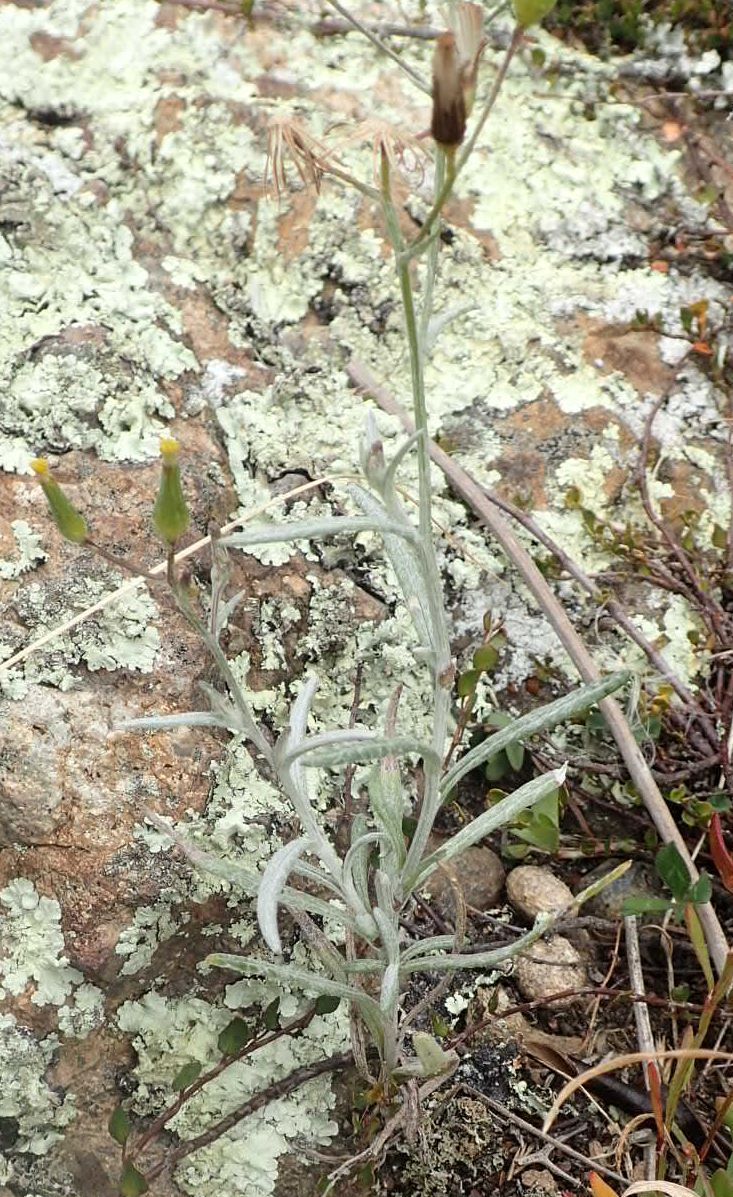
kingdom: Plantae
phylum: Tracheophyta
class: Magnoliopsida
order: Asterales
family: Asteraceae
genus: Senecio
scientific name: Senecio quadridentatus
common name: Cotton fireweed
